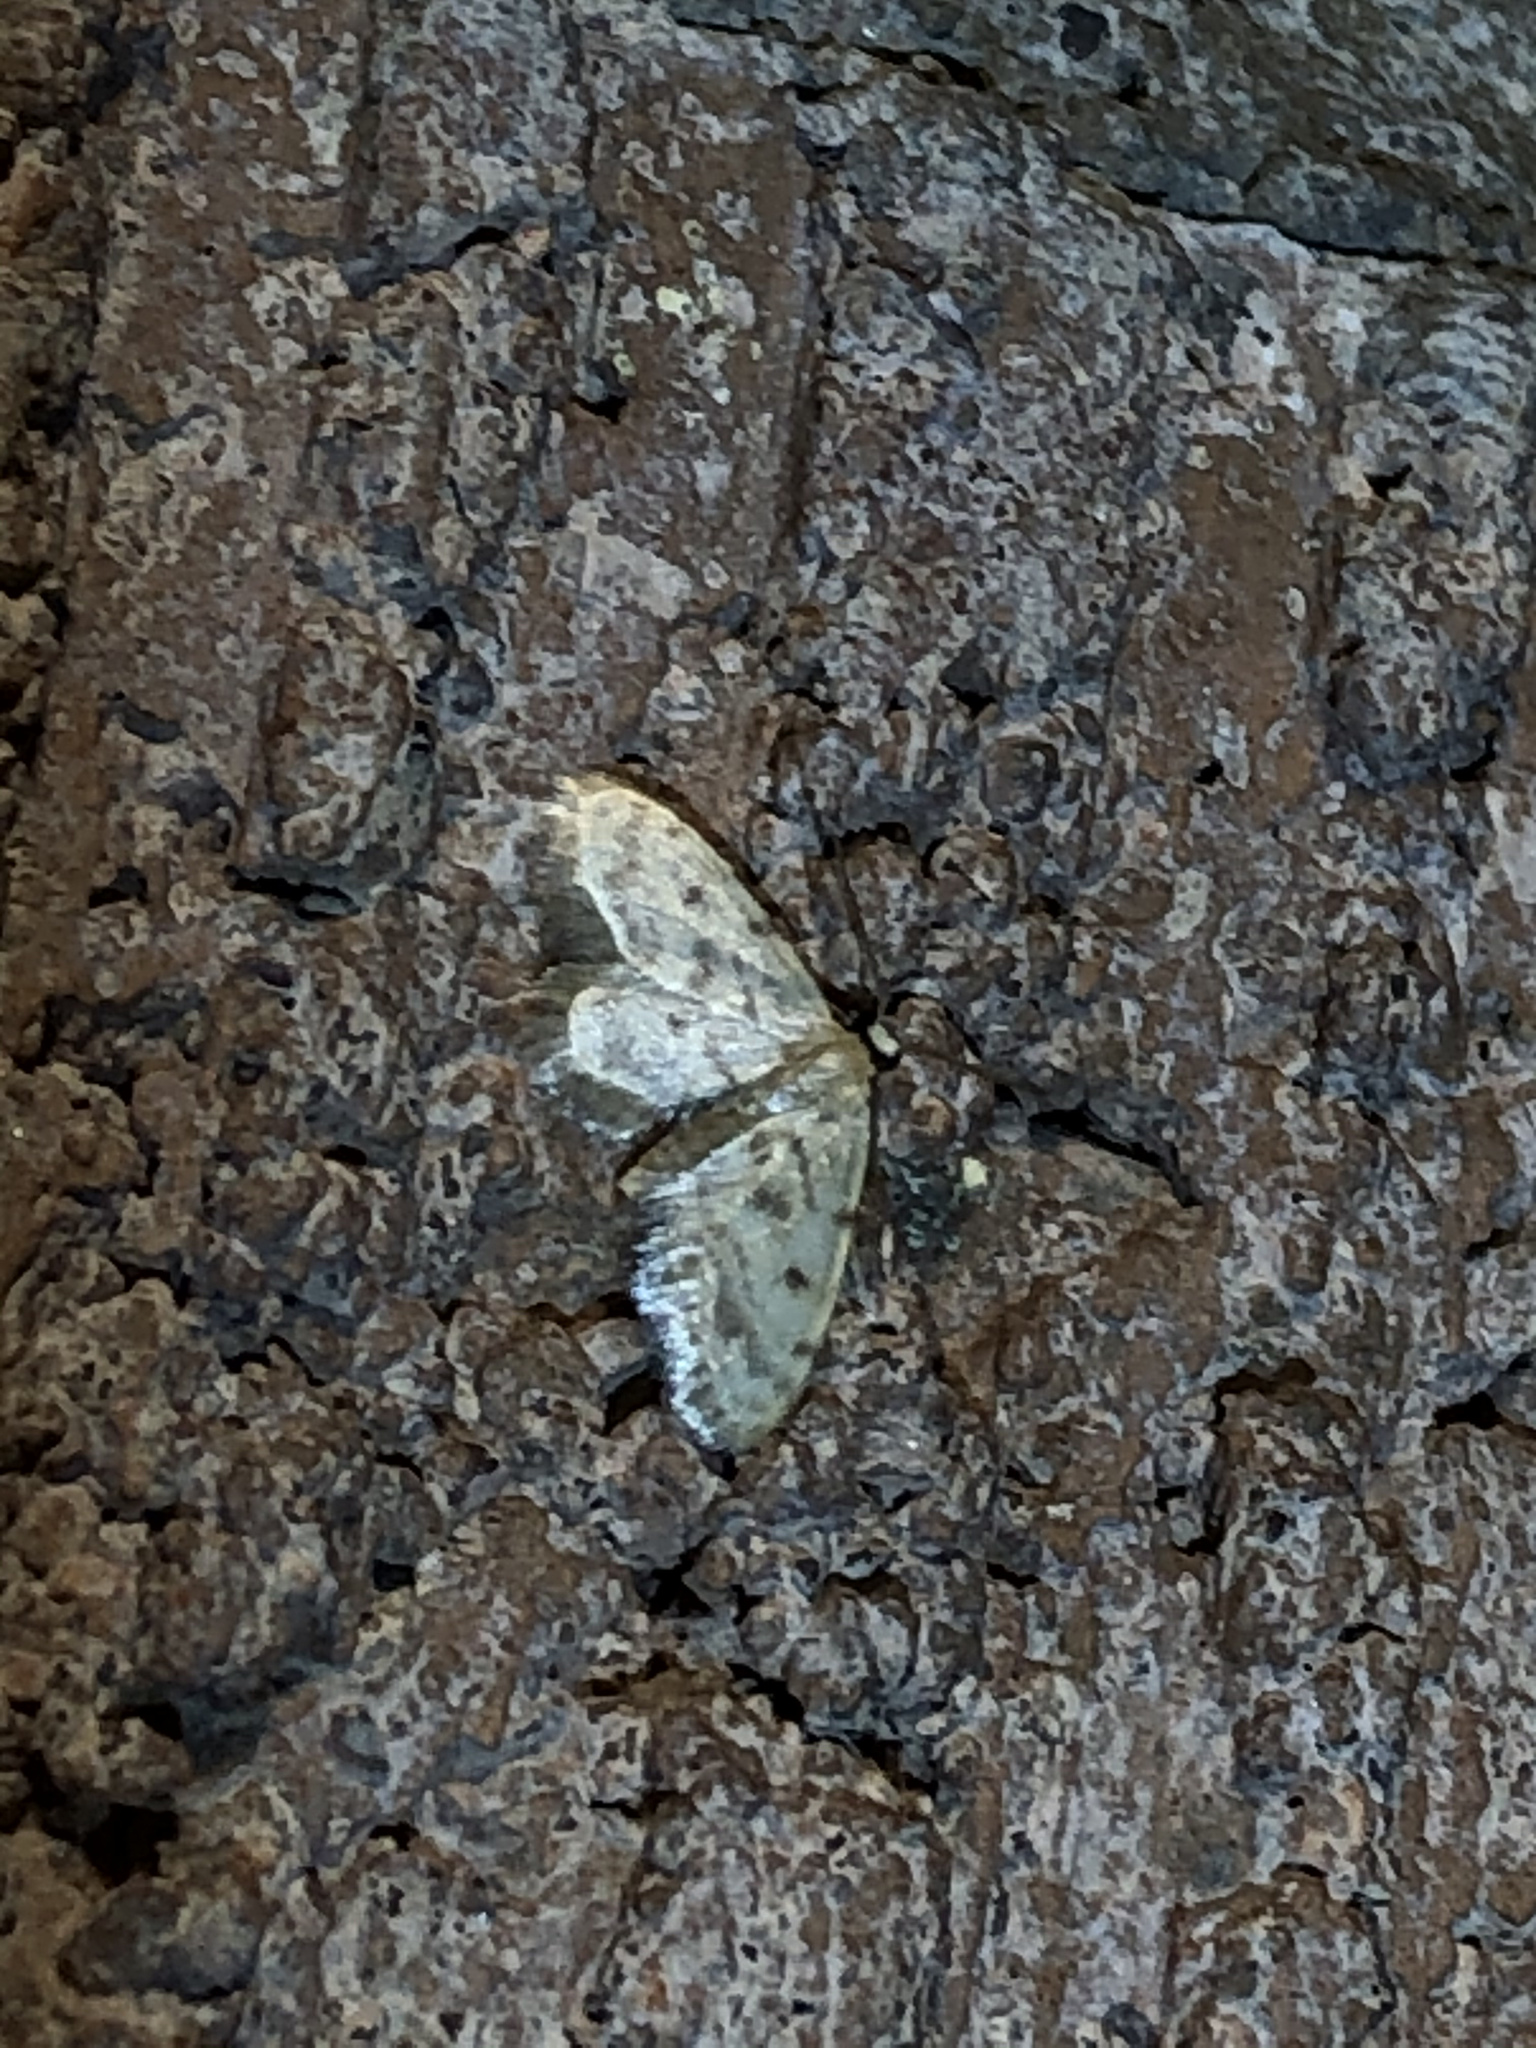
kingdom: Animalia
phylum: Arthropoda
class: Insecta
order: Lepidoptera
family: Geometridae
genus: Idaea
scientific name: Idaea bonifata
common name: Fortunate wave
